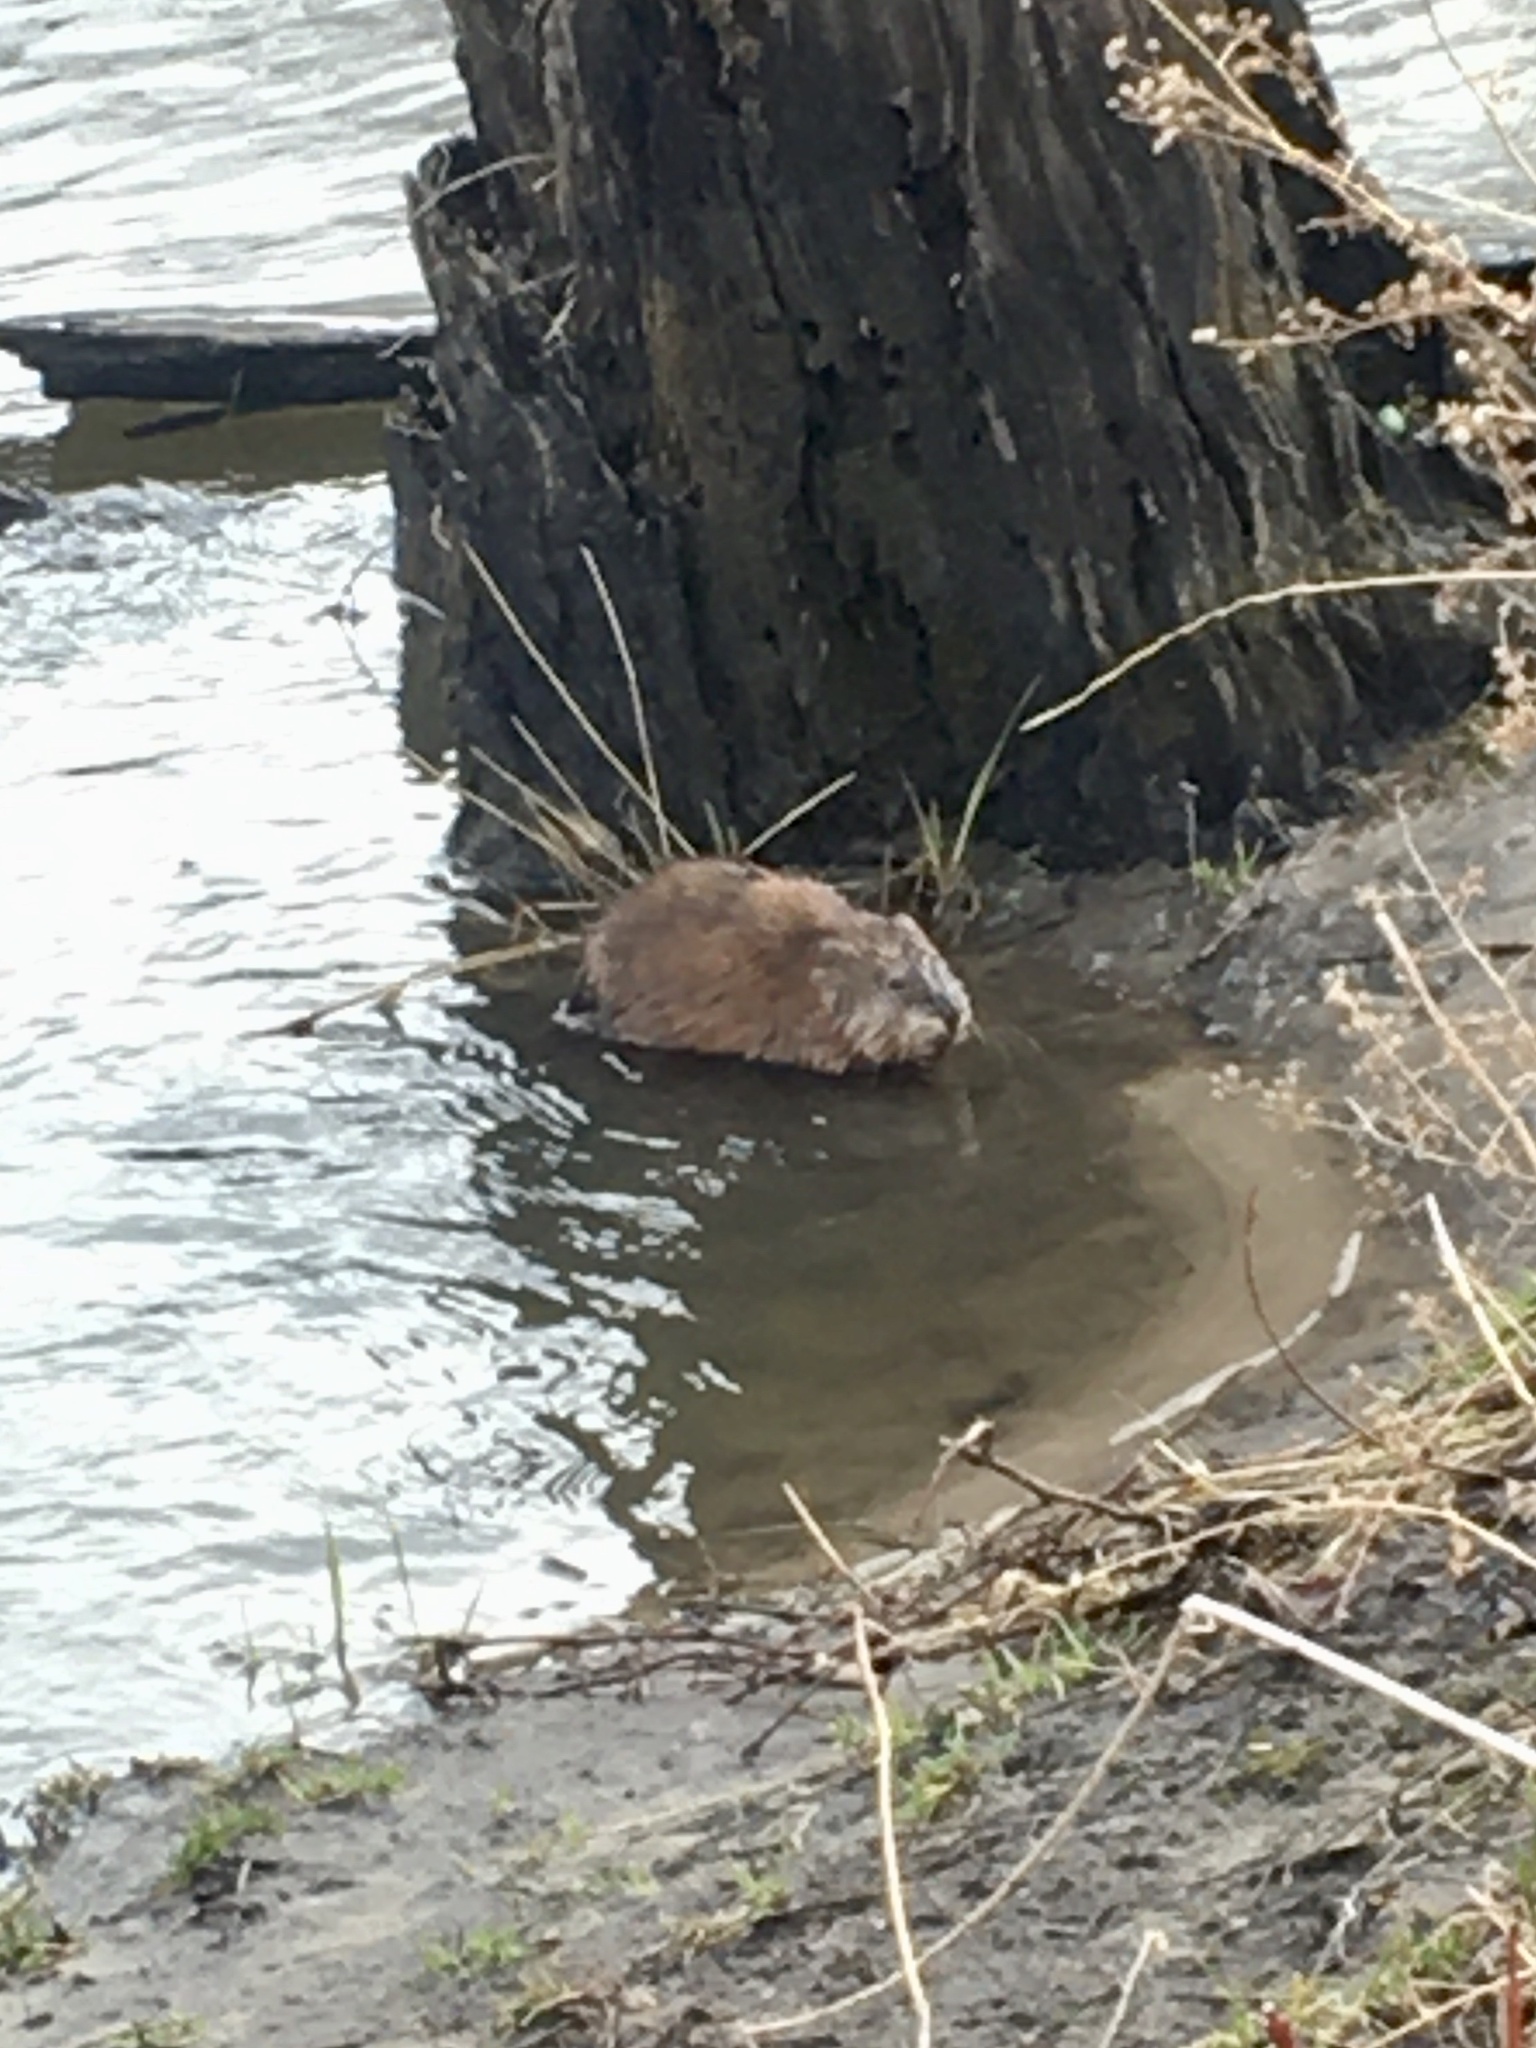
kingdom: Animalia
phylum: Chordata
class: Mammalia
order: Rodentia
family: Cricetidae
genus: Ondatra
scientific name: Ondatra zibethicus
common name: Muskrat
